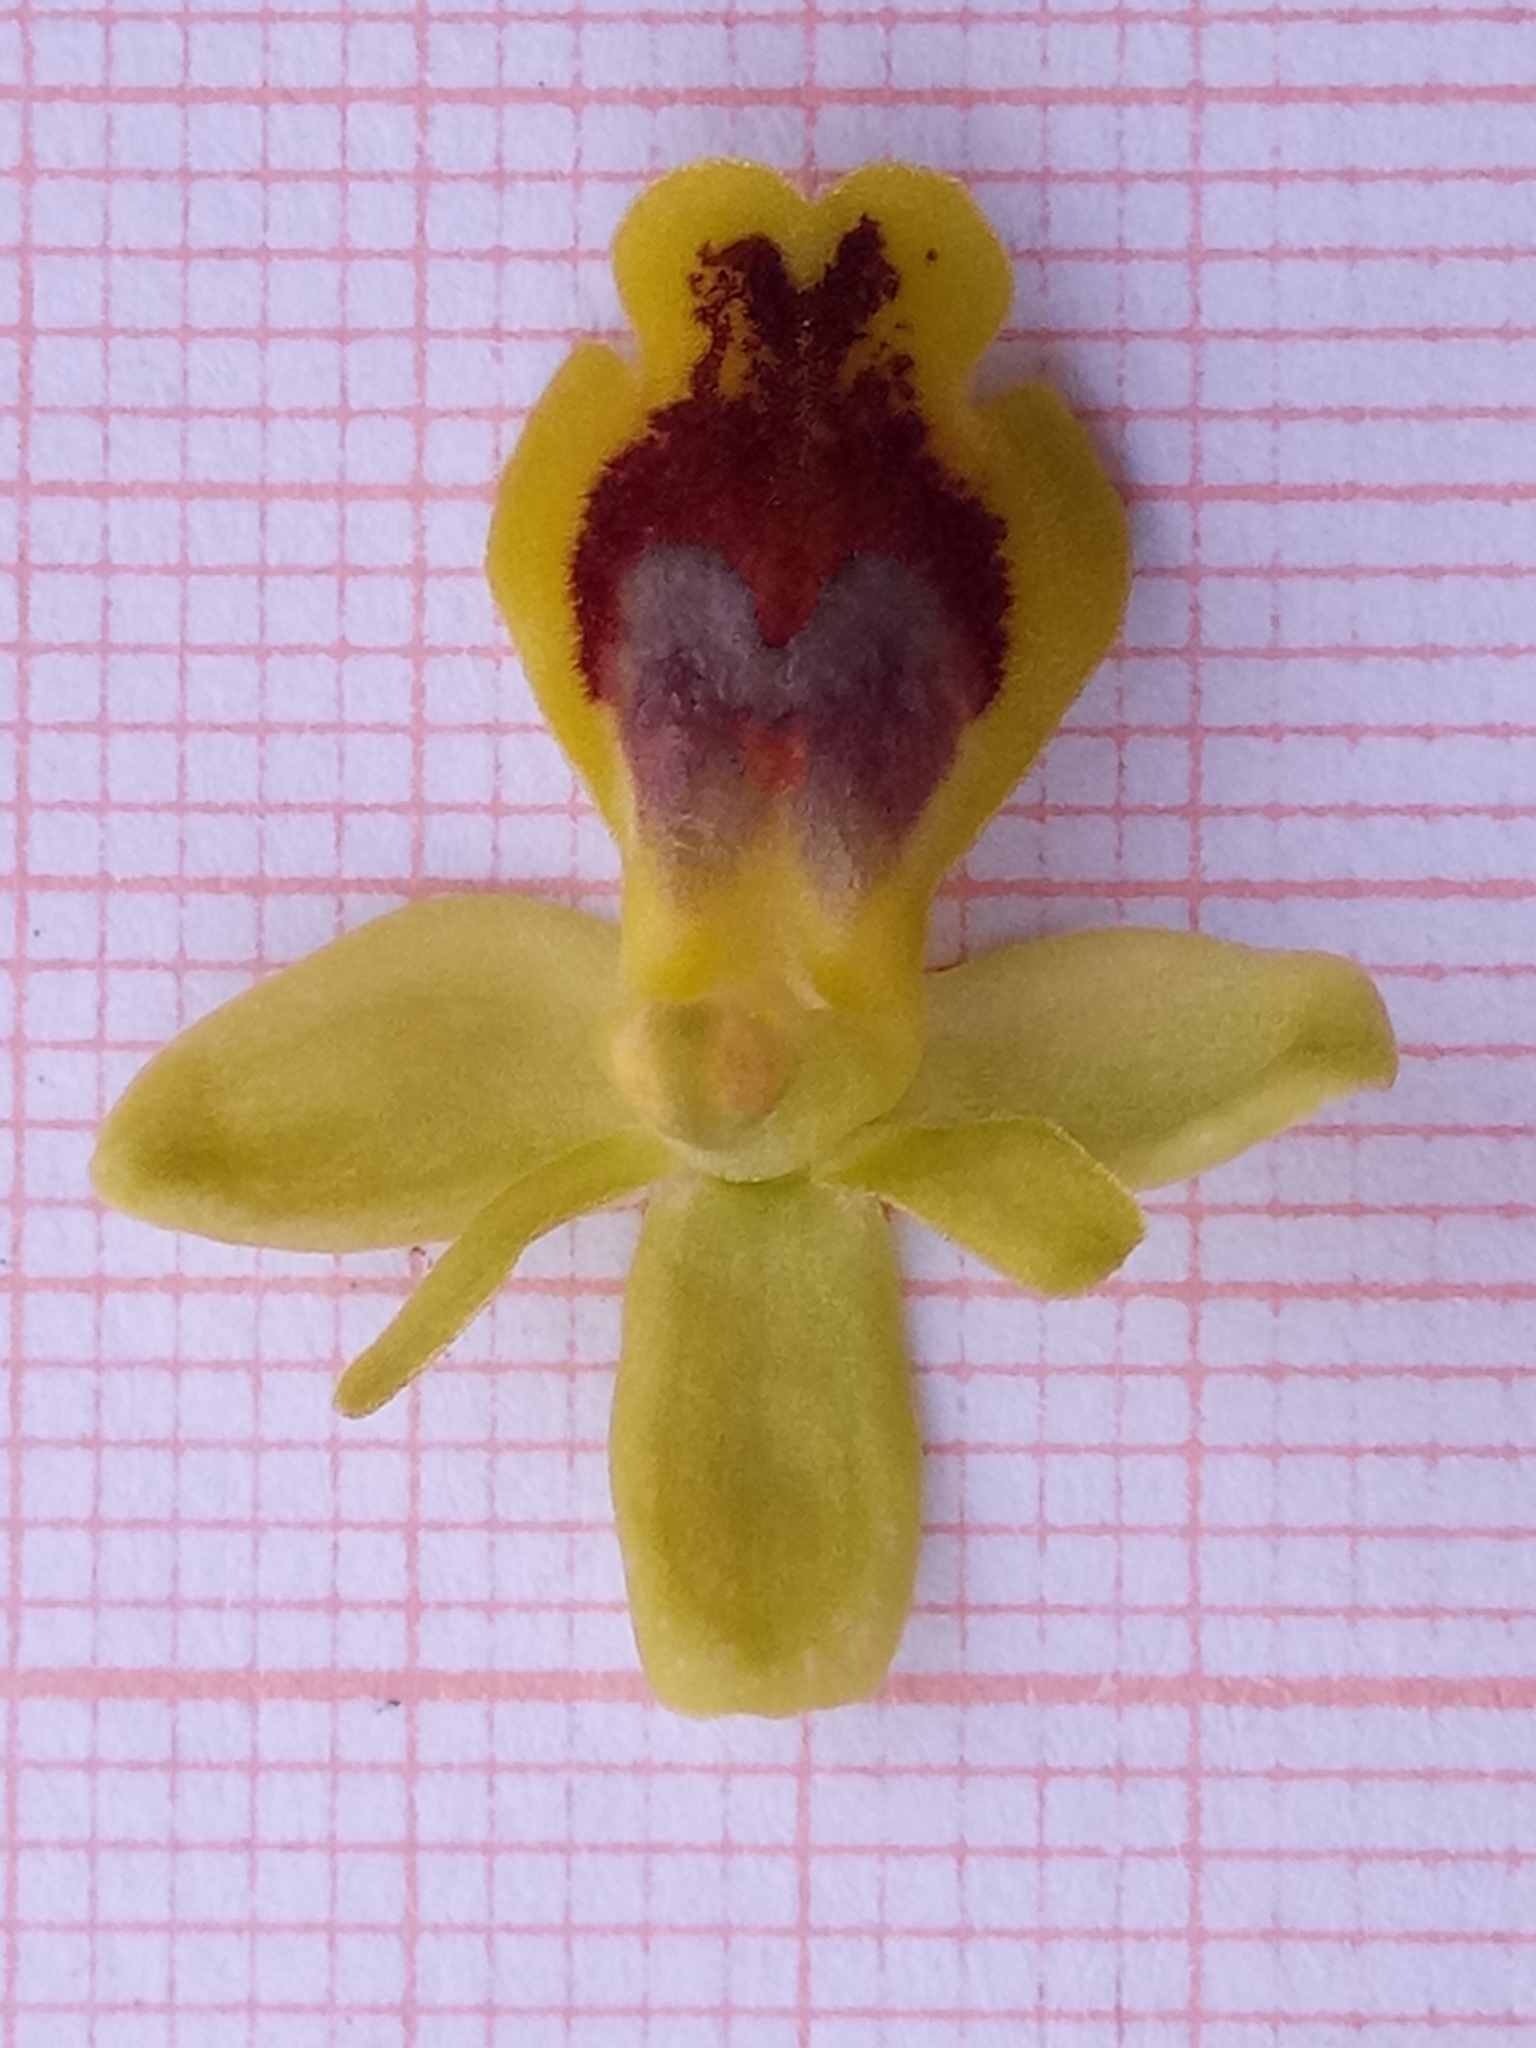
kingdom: Plantae
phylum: Tracheophyta
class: Liliopsida
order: Asparagales
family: Orchidaceae
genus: Ophrys
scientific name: Ophrys battandieri
